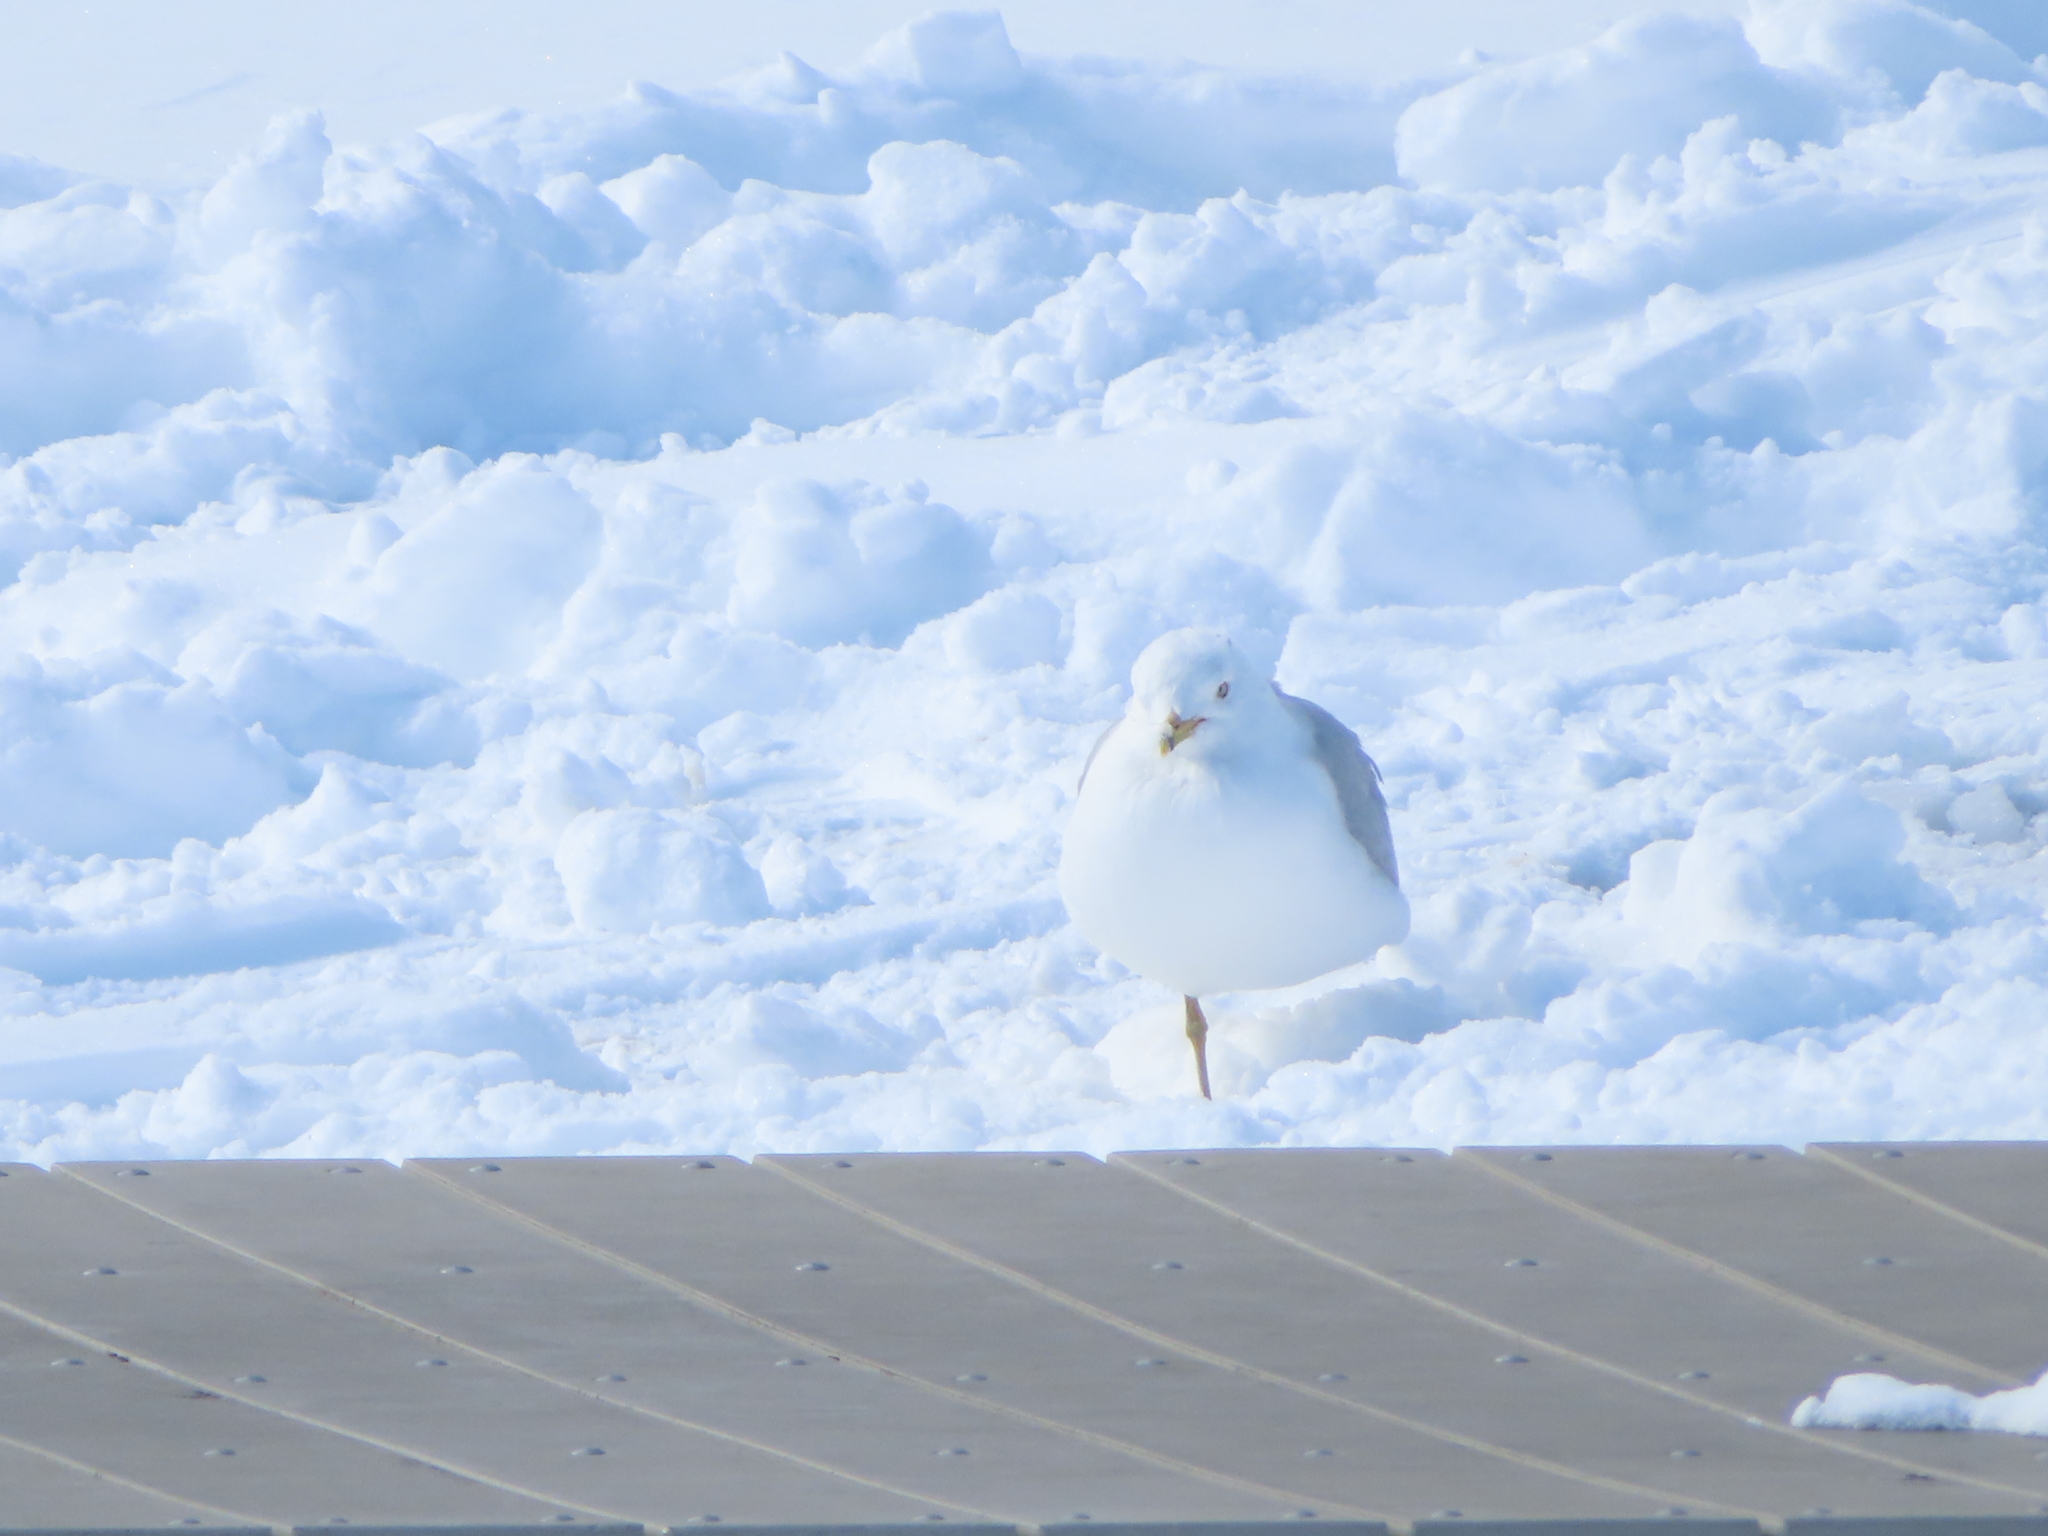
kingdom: Animalia
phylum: Chordata
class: Aves
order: Charadriiformes
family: Laridae
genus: Larus
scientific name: Larus delawarensis
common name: Ring-billed gull
